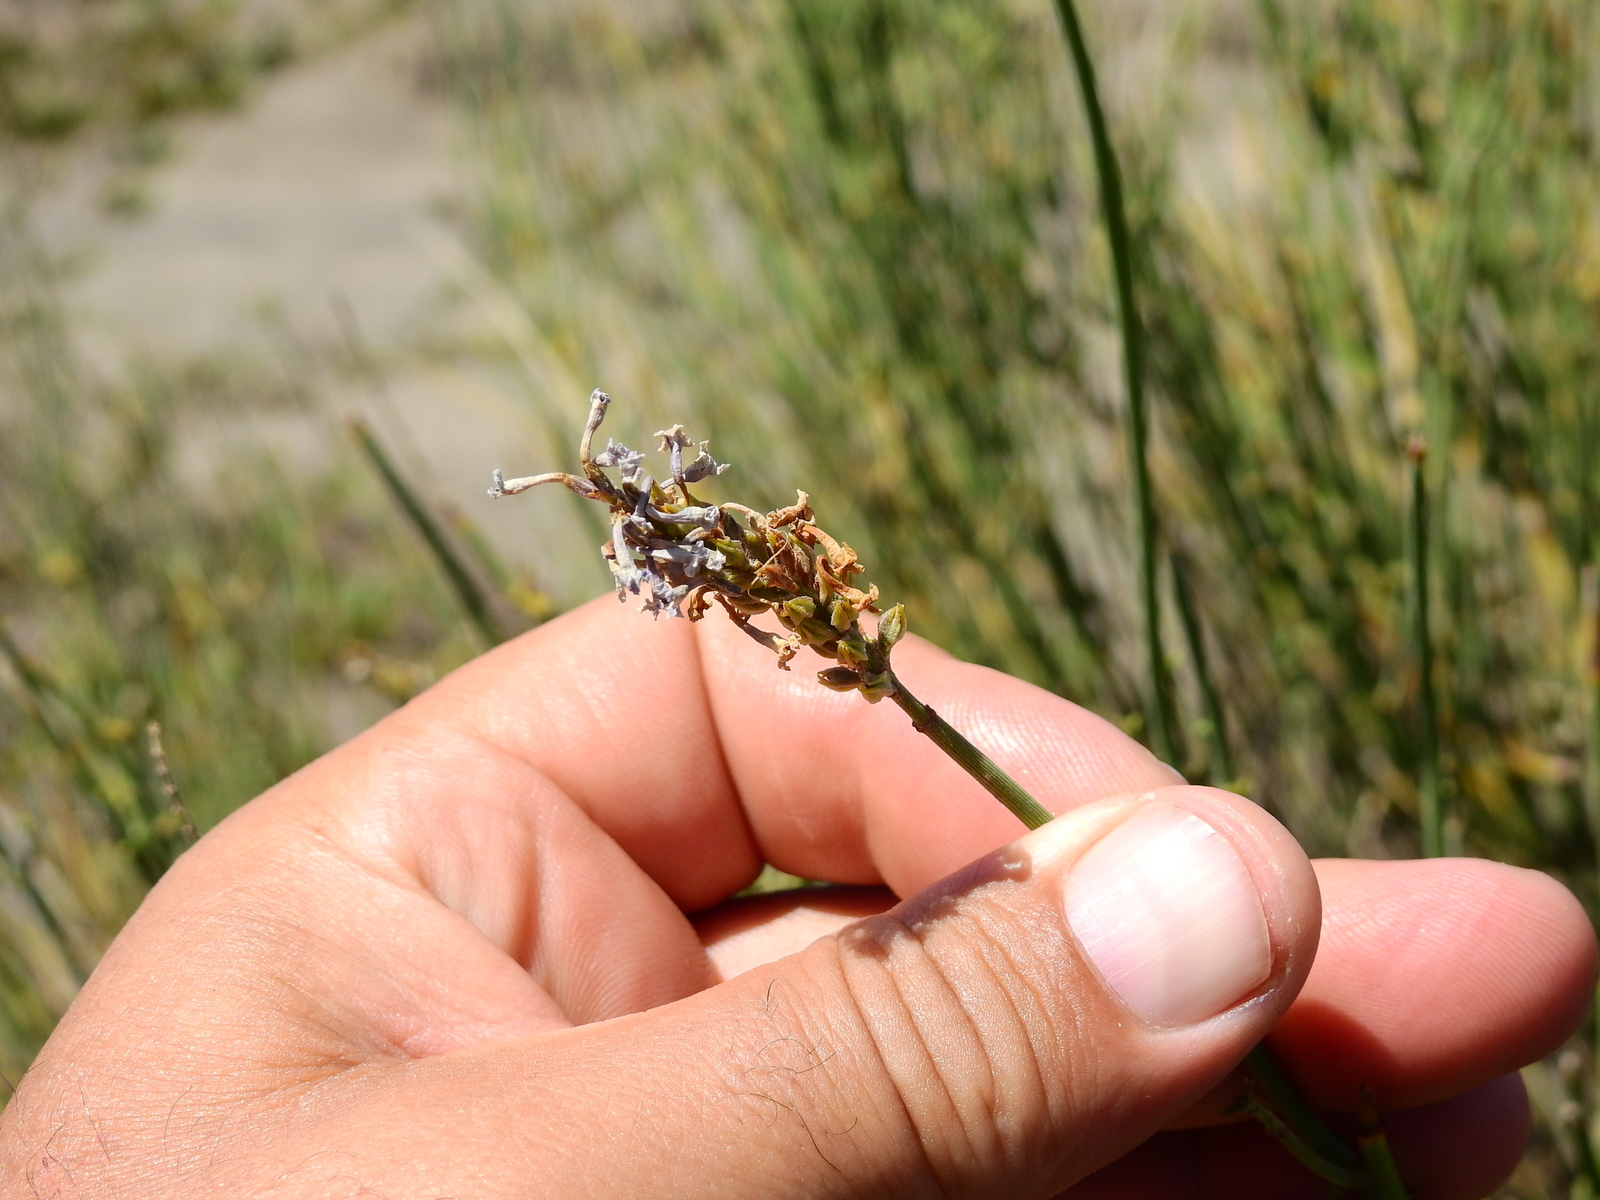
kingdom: Plantae
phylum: Tracheophyta
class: Magnoliopsida
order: Lamiales
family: Verbenaceae
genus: Neosparton
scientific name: Neosparton aphyllum
